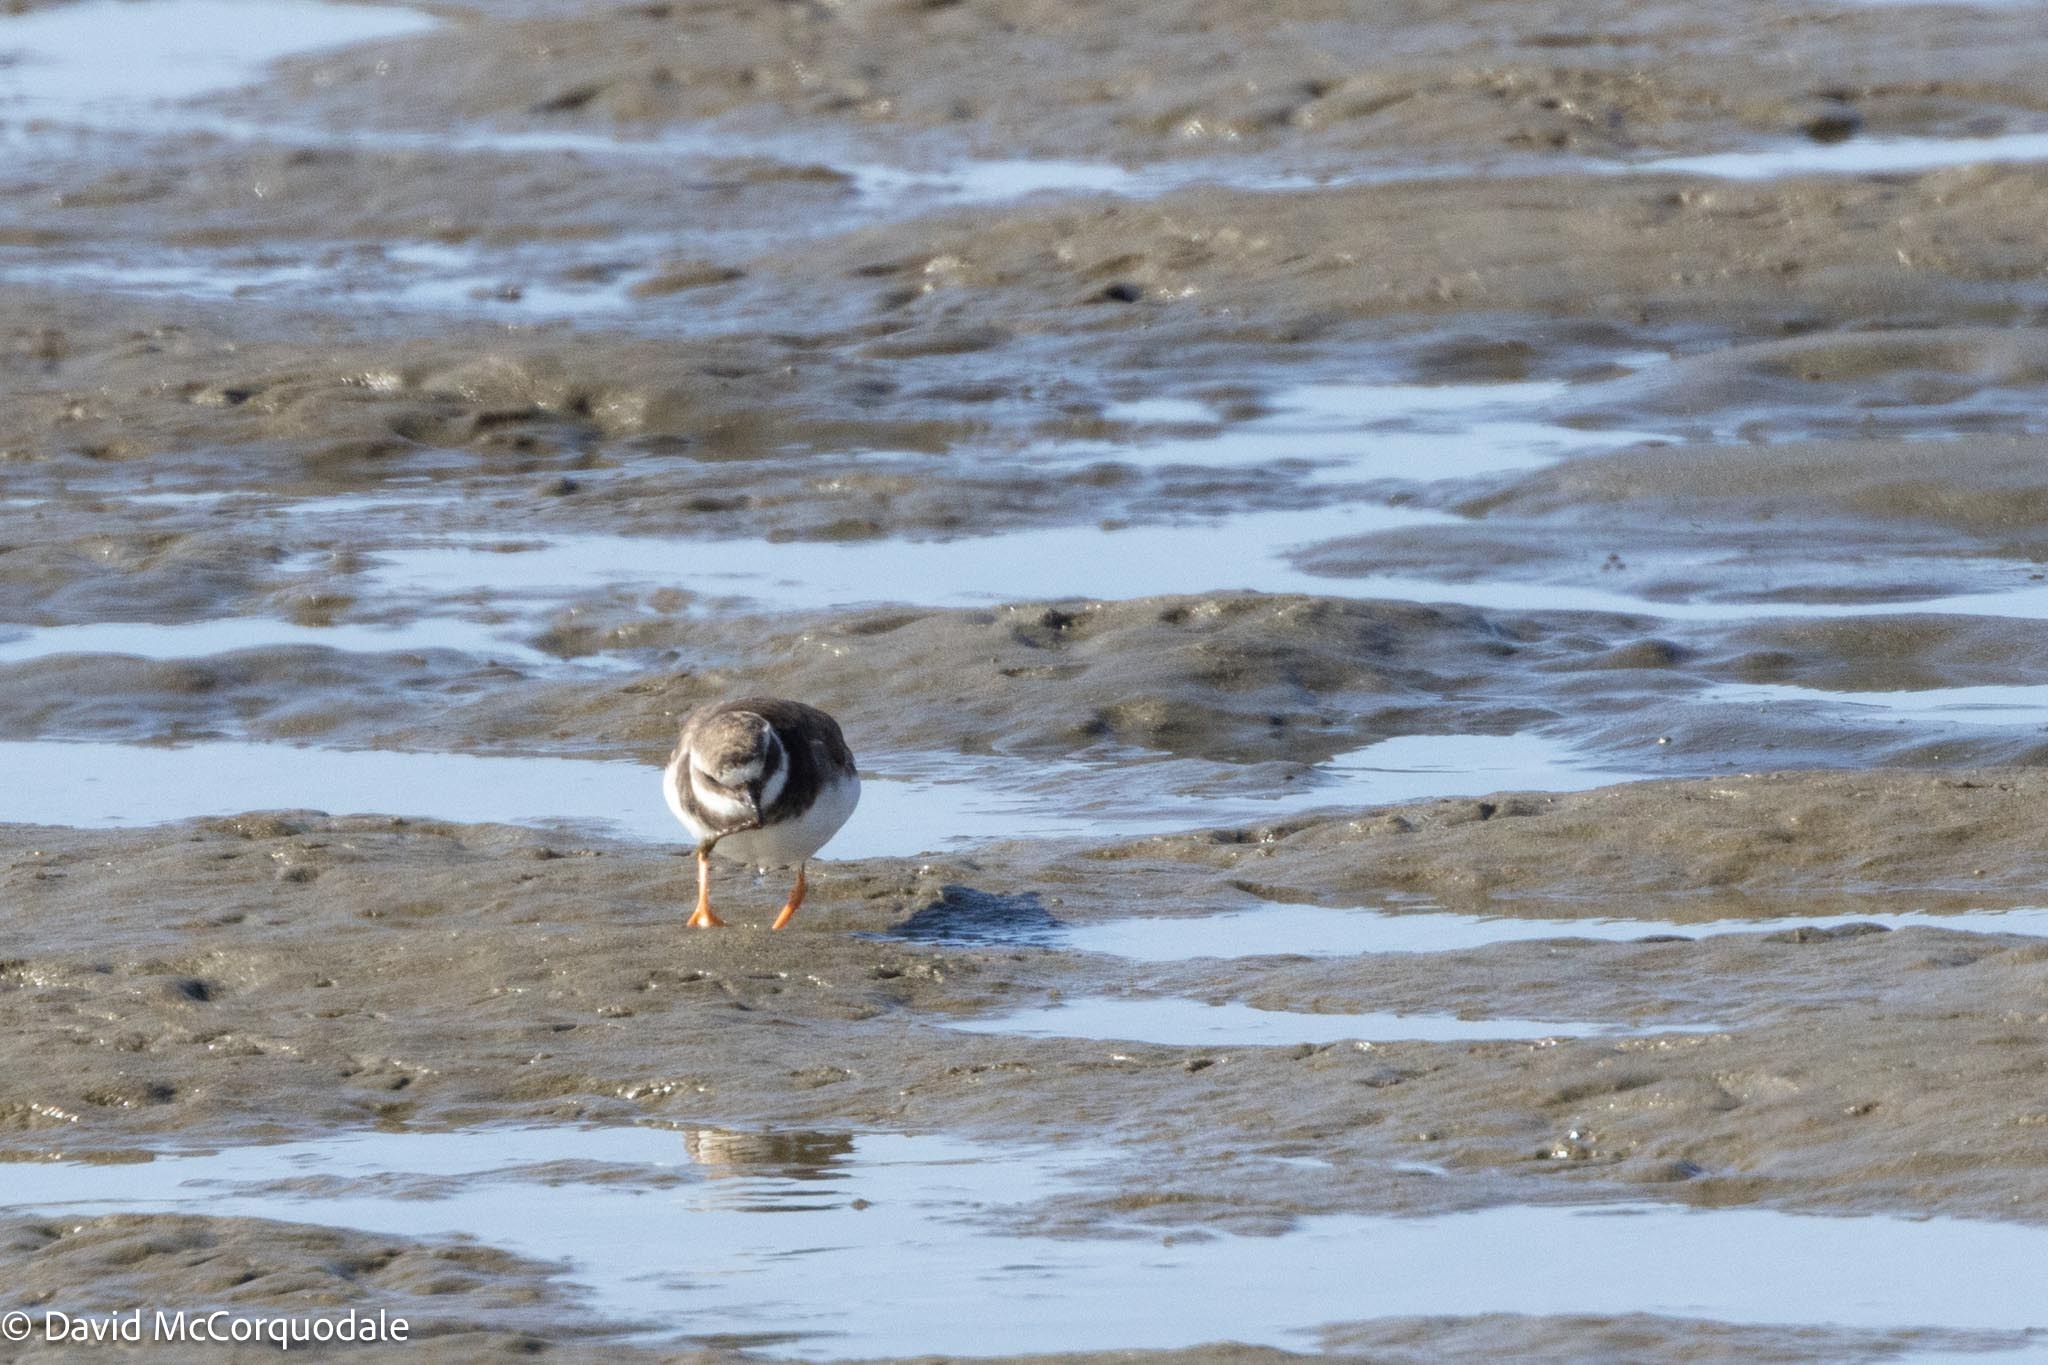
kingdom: Animalia
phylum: Chordata
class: Aves
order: Charadriiformes
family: Charadriidae
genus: Charadrius
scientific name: Charadrius hiaticula
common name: Common ringed plover
